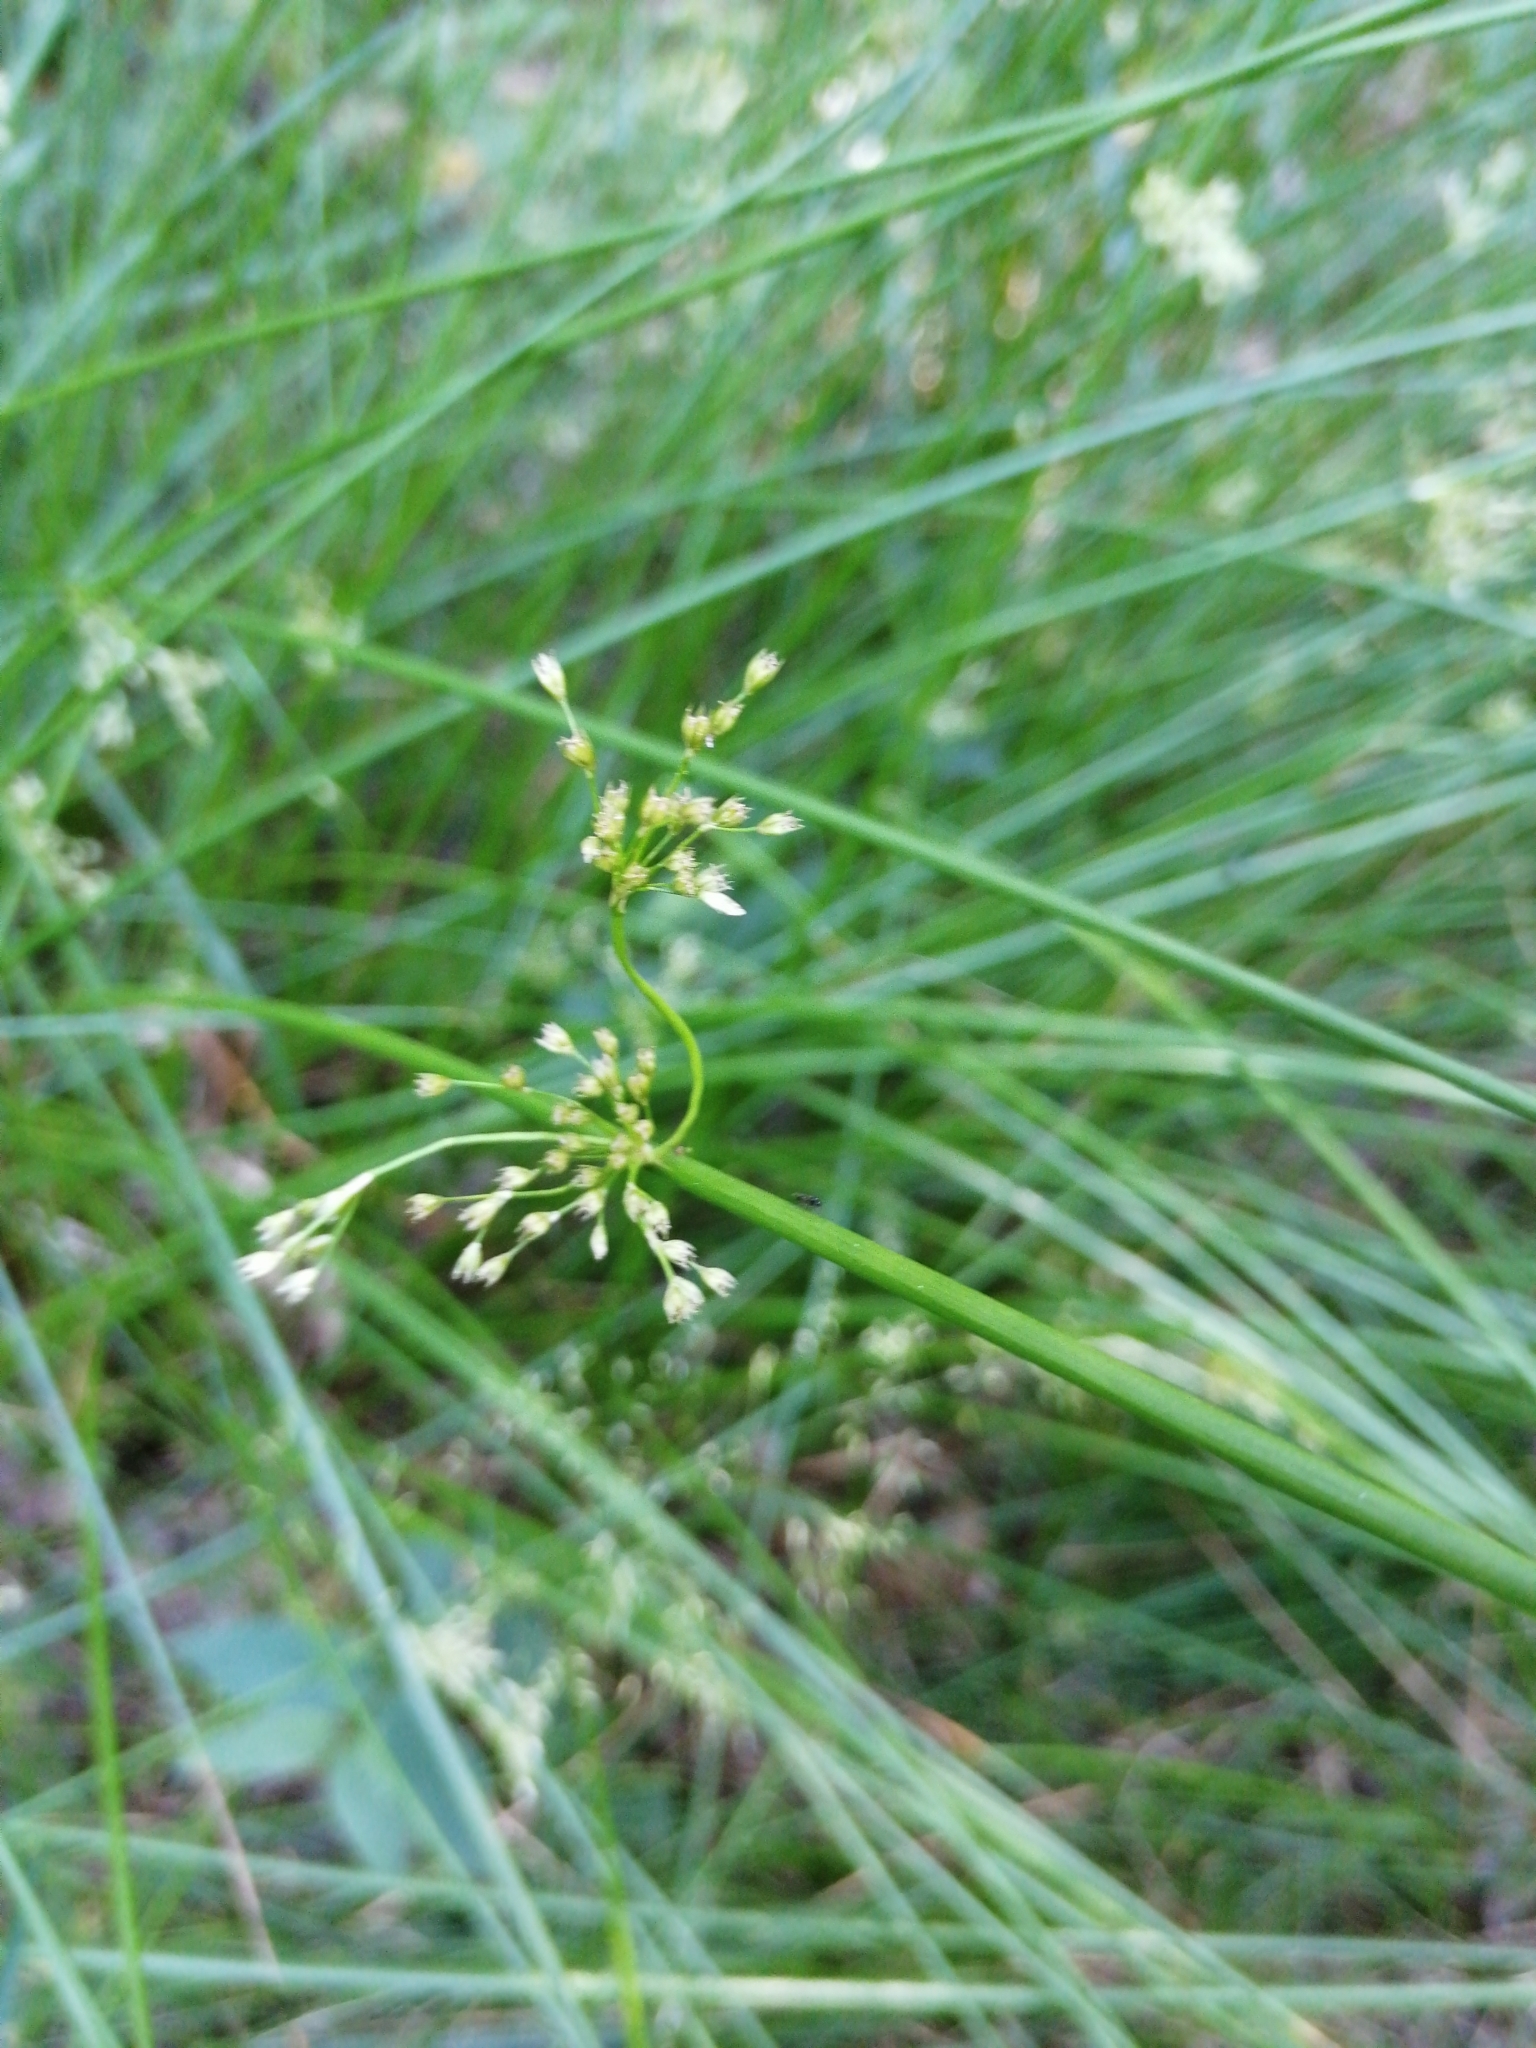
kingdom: Plantae
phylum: Tracheophyta
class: Liliopsida
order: Poales
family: Juncaceae
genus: Juncus
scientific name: Juncus effusus
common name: Soft rush
